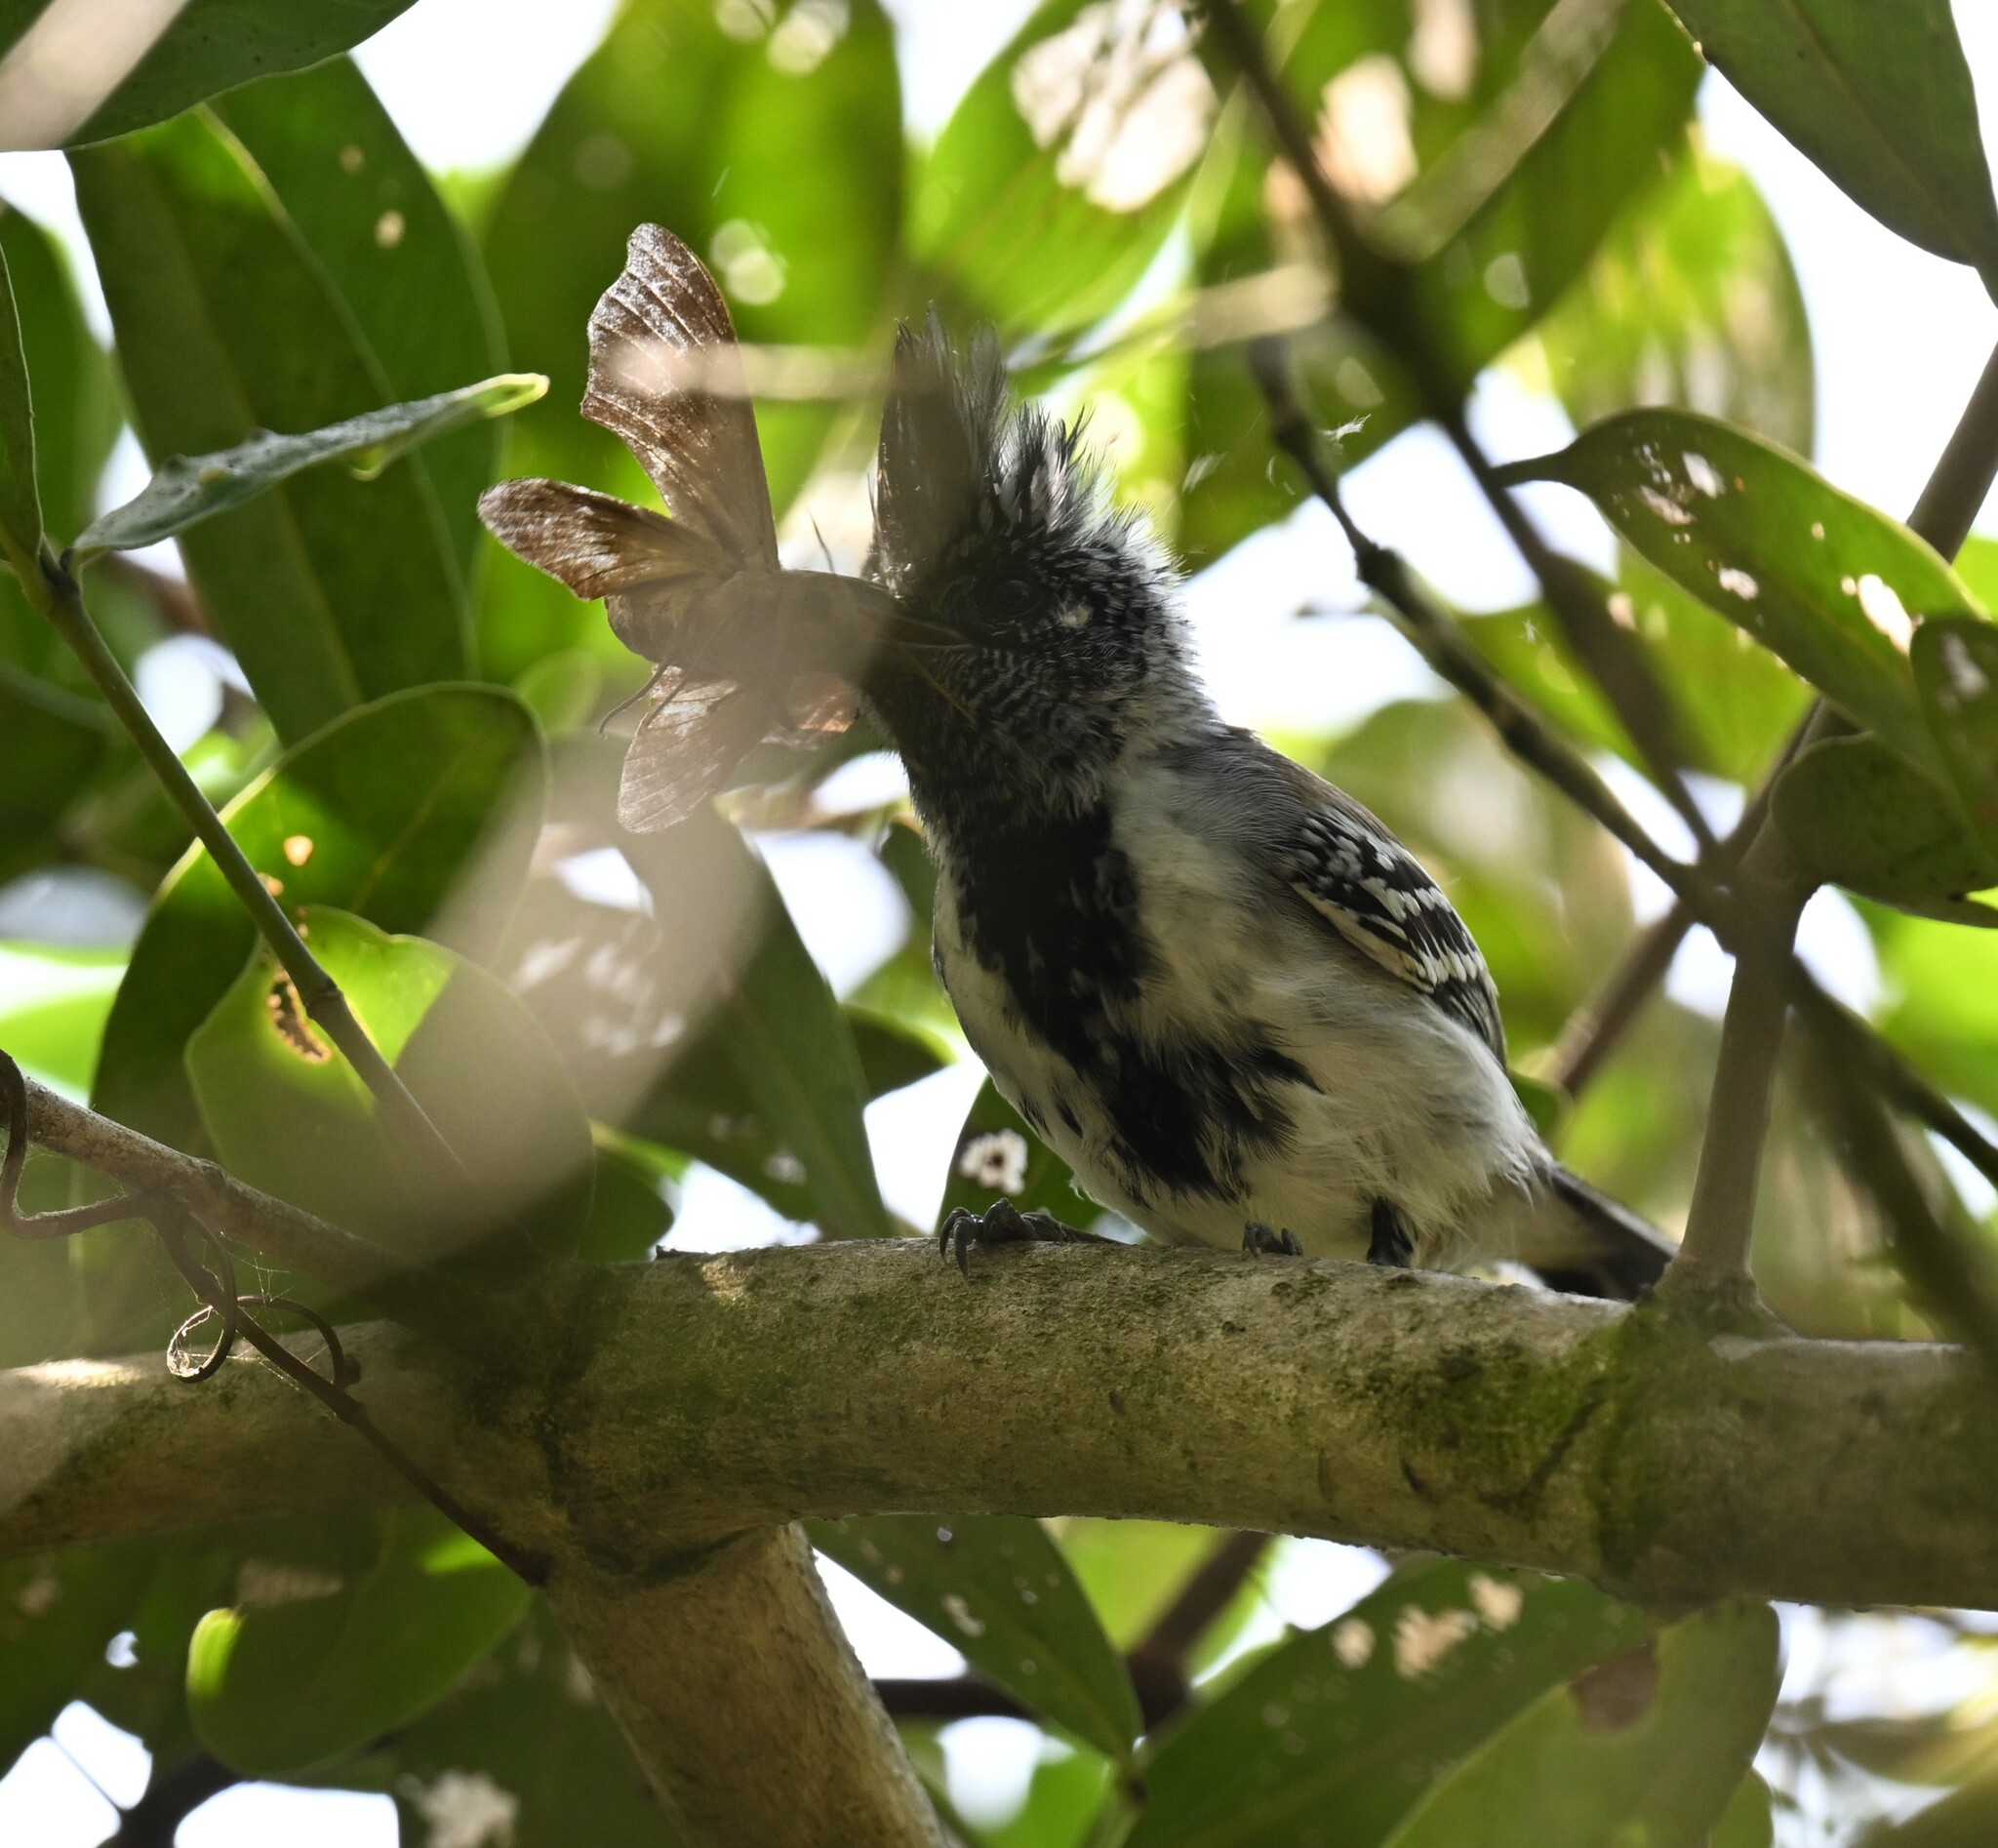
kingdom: Animalia
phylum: Chordata
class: Aves
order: Passeriformes
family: Thamnophilidae
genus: Sakesphorus
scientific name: Sakesphorus canadensis
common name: Black-crested antshrike
